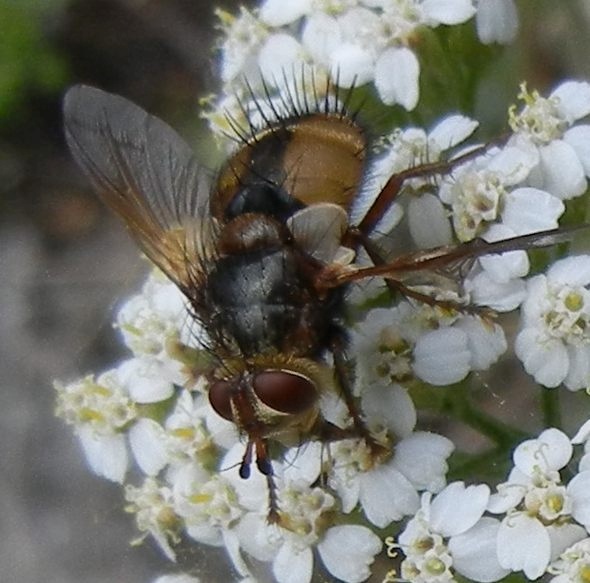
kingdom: Animalia
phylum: Arthropoda
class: Insecta
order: Diptera
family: Tachinidae
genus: Tachina
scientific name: Tachina fera
